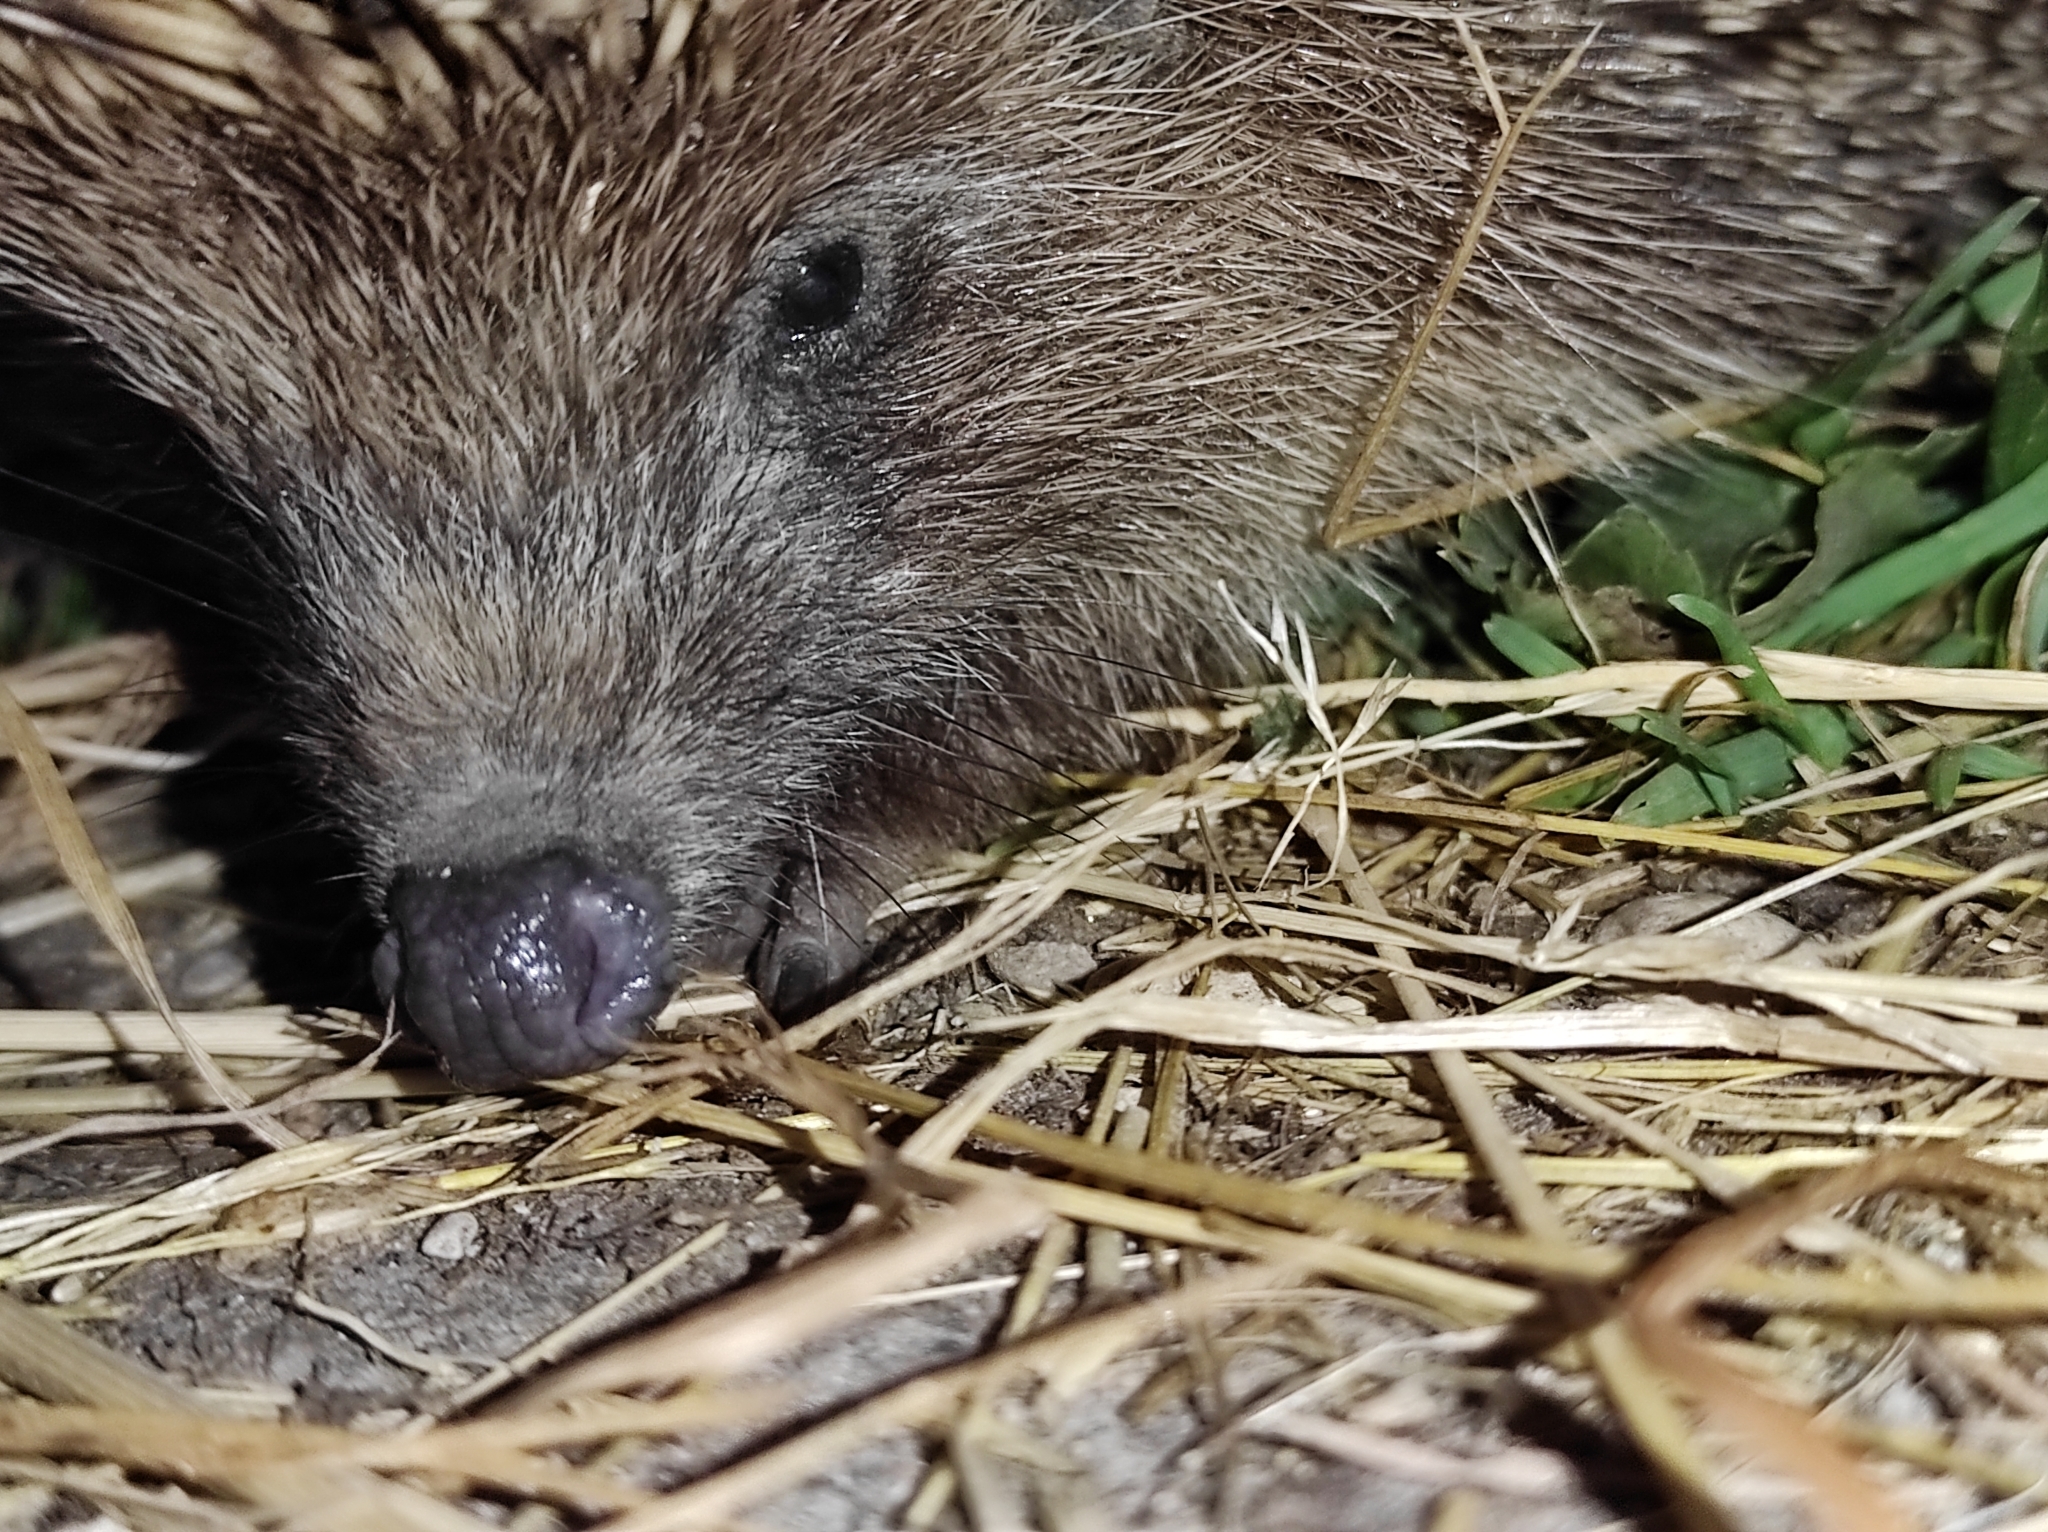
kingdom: Animalia
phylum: Chordata
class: Mammalia
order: Erinaceomorpha
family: Erinaceidae
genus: Erinaceus
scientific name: Erinaceus roumanicus
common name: Northern white-breasted hedgehog
